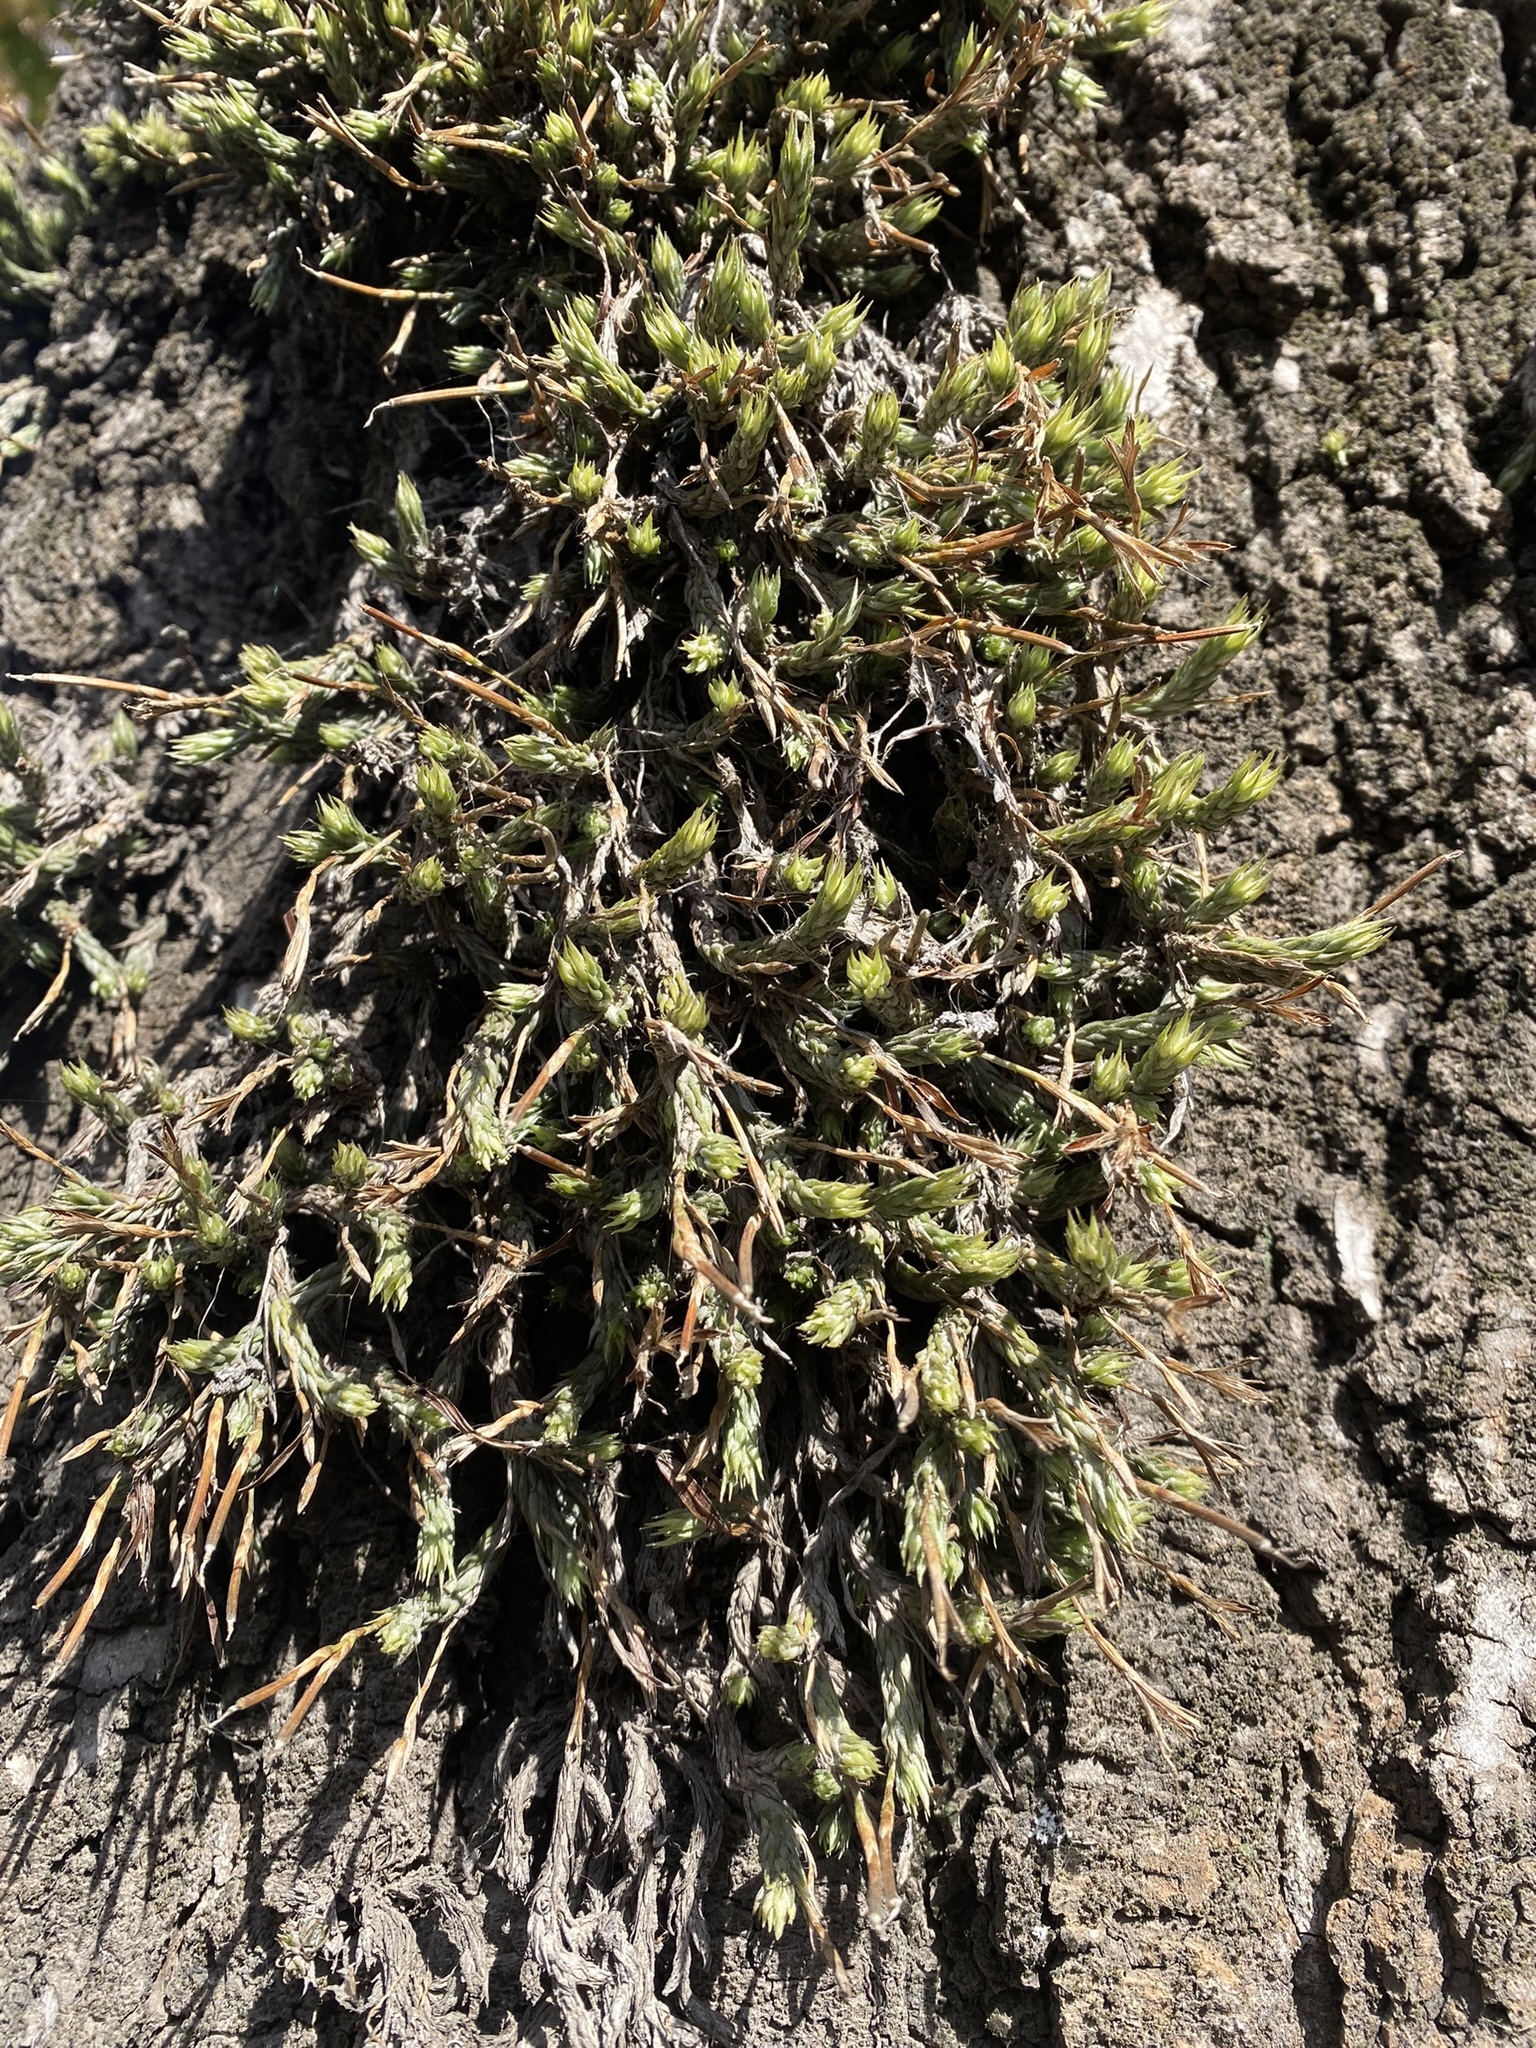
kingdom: Plantae
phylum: Tracheophyta
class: Liliopsida
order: Poales
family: Bromeliaceae
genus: Tillandsia
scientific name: Tillandsia tricholepis
